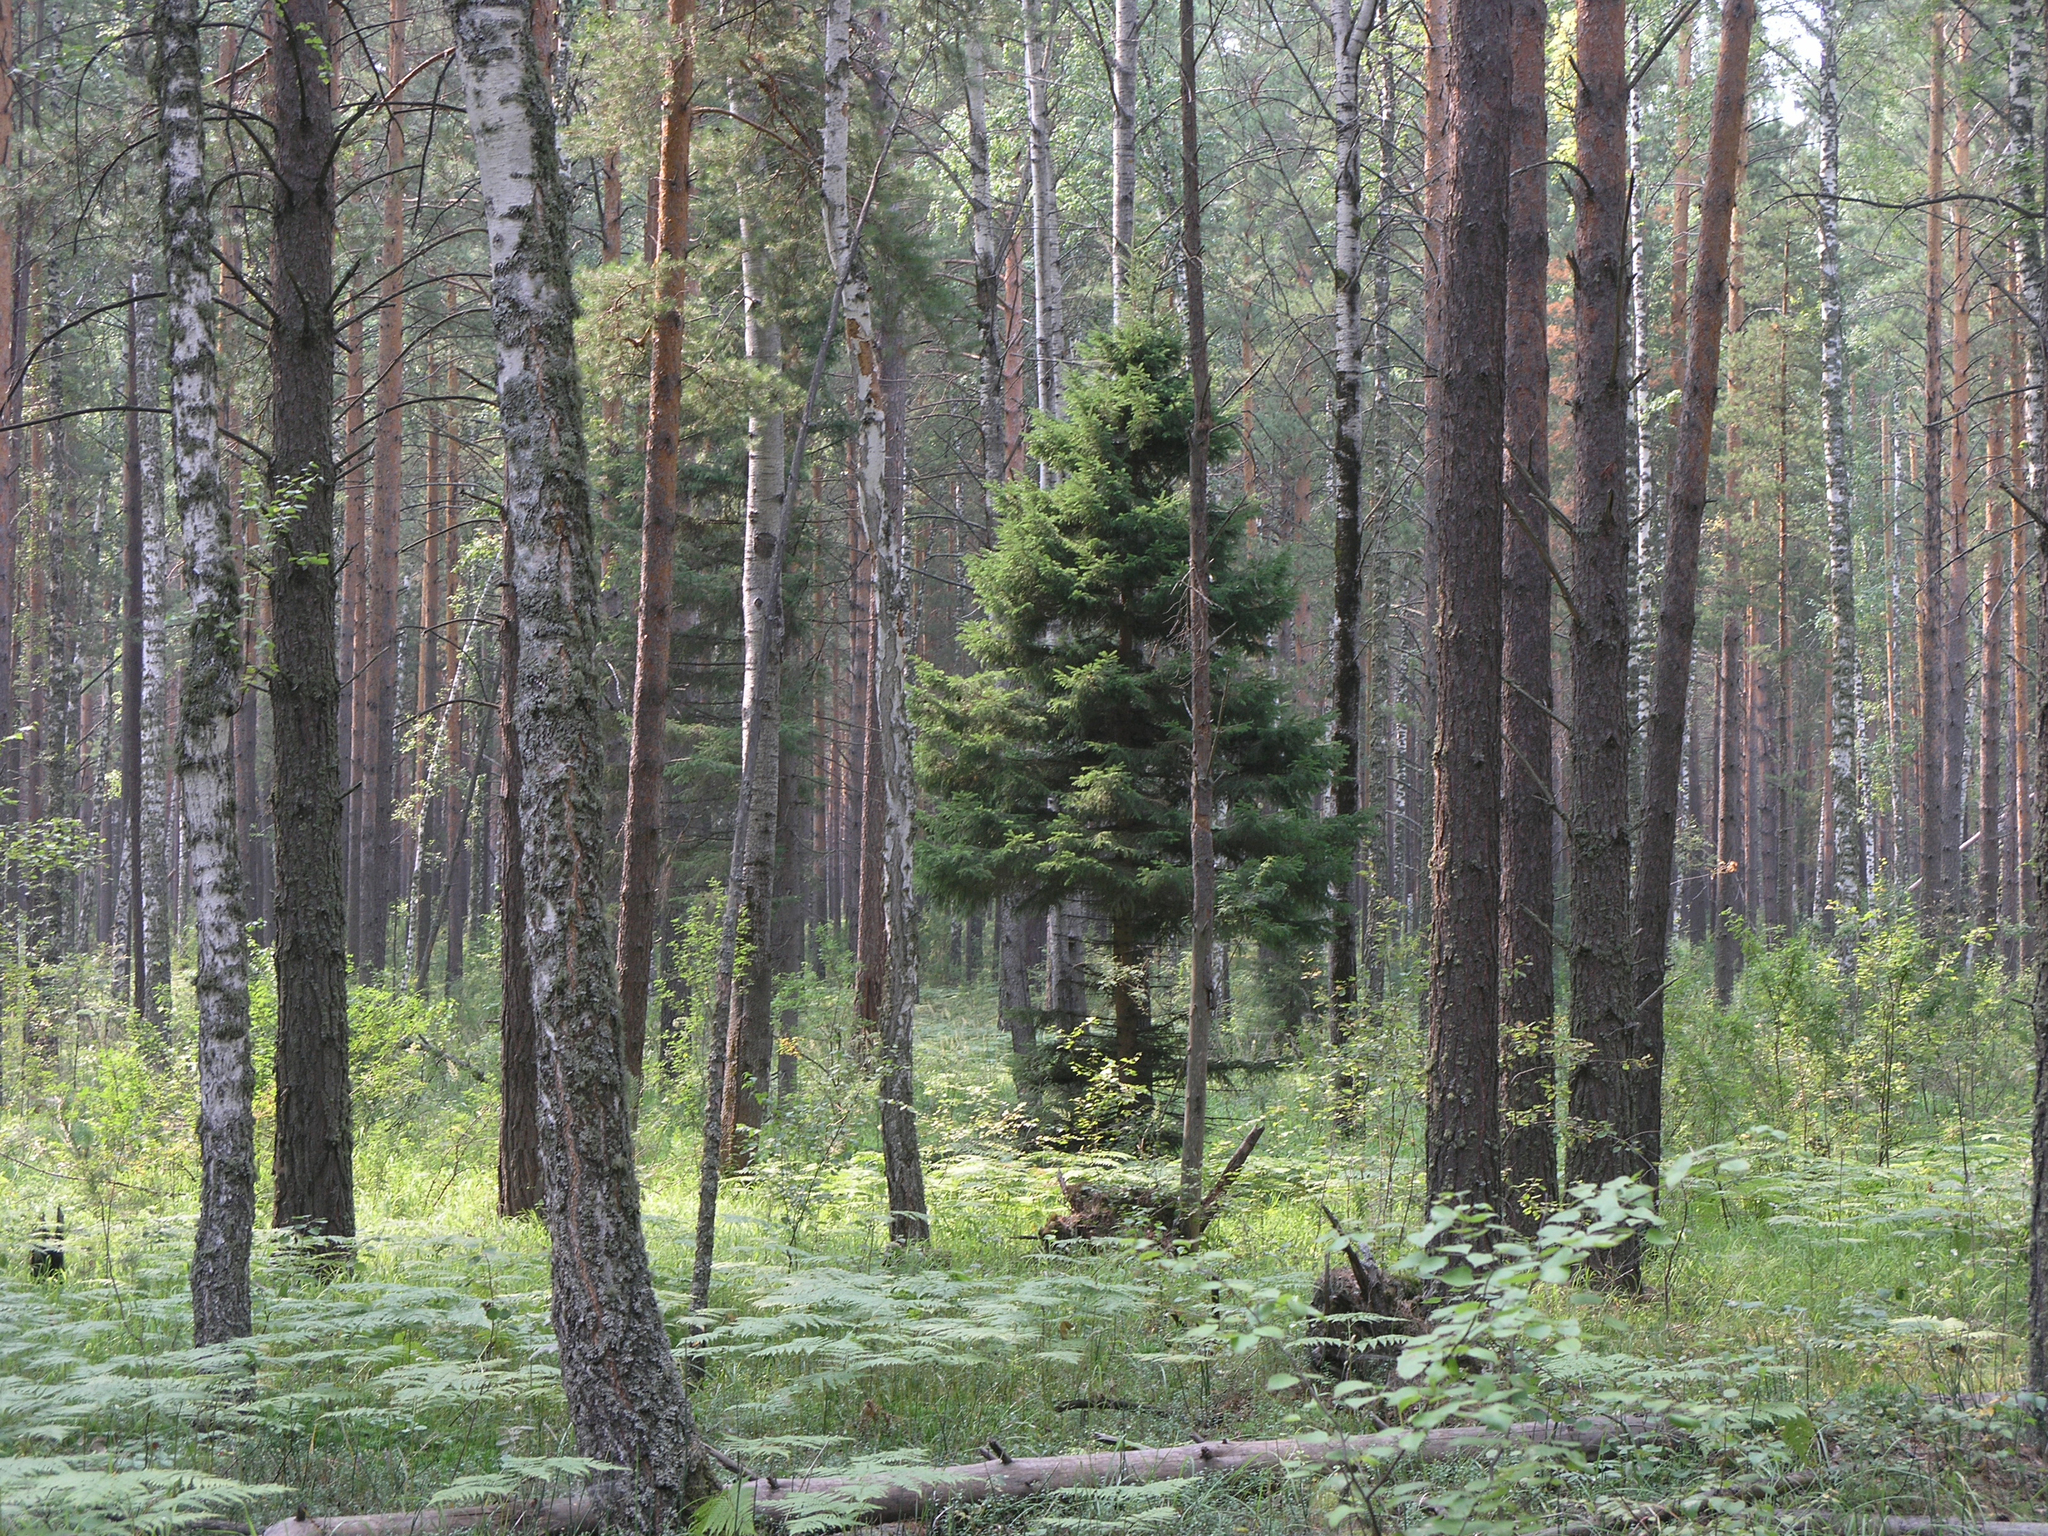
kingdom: Plantae
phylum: Tracheophyta
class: Pinopsida
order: Pinales
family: Pinaceae
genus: Pinus
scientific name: Pinus sylvestris
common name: Scots pine
